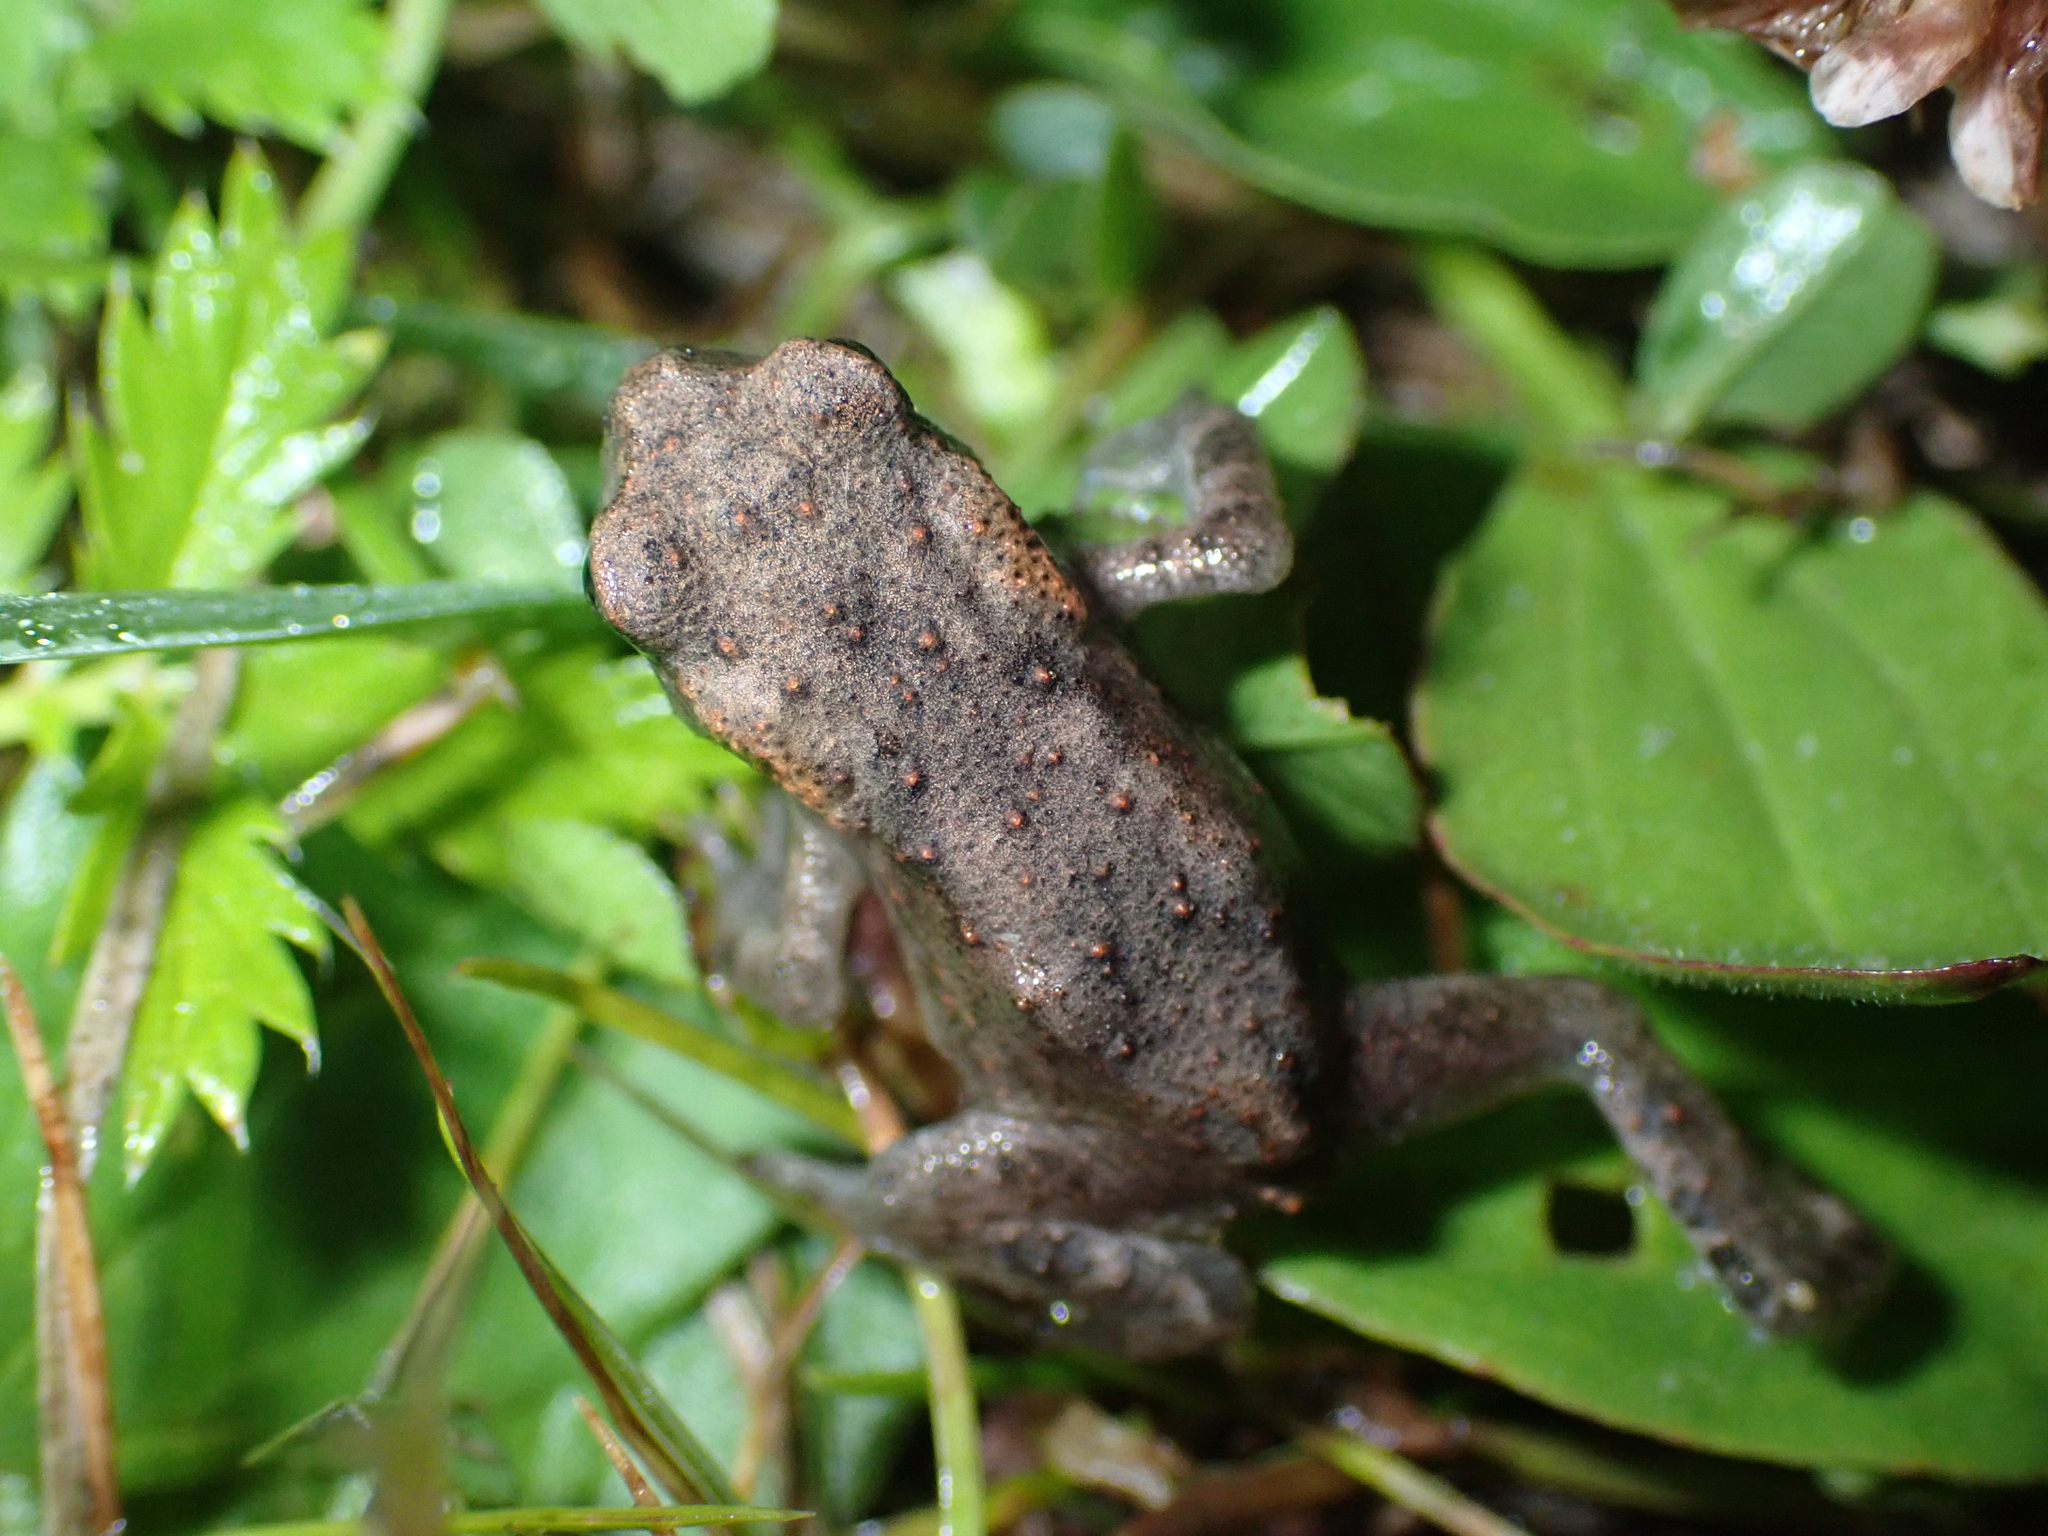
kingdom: Animalia
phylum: Chordata
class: Amphibia
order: Anura
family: Bufonidae
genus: Bufo
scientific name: Bufo bufo
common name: Common toad
